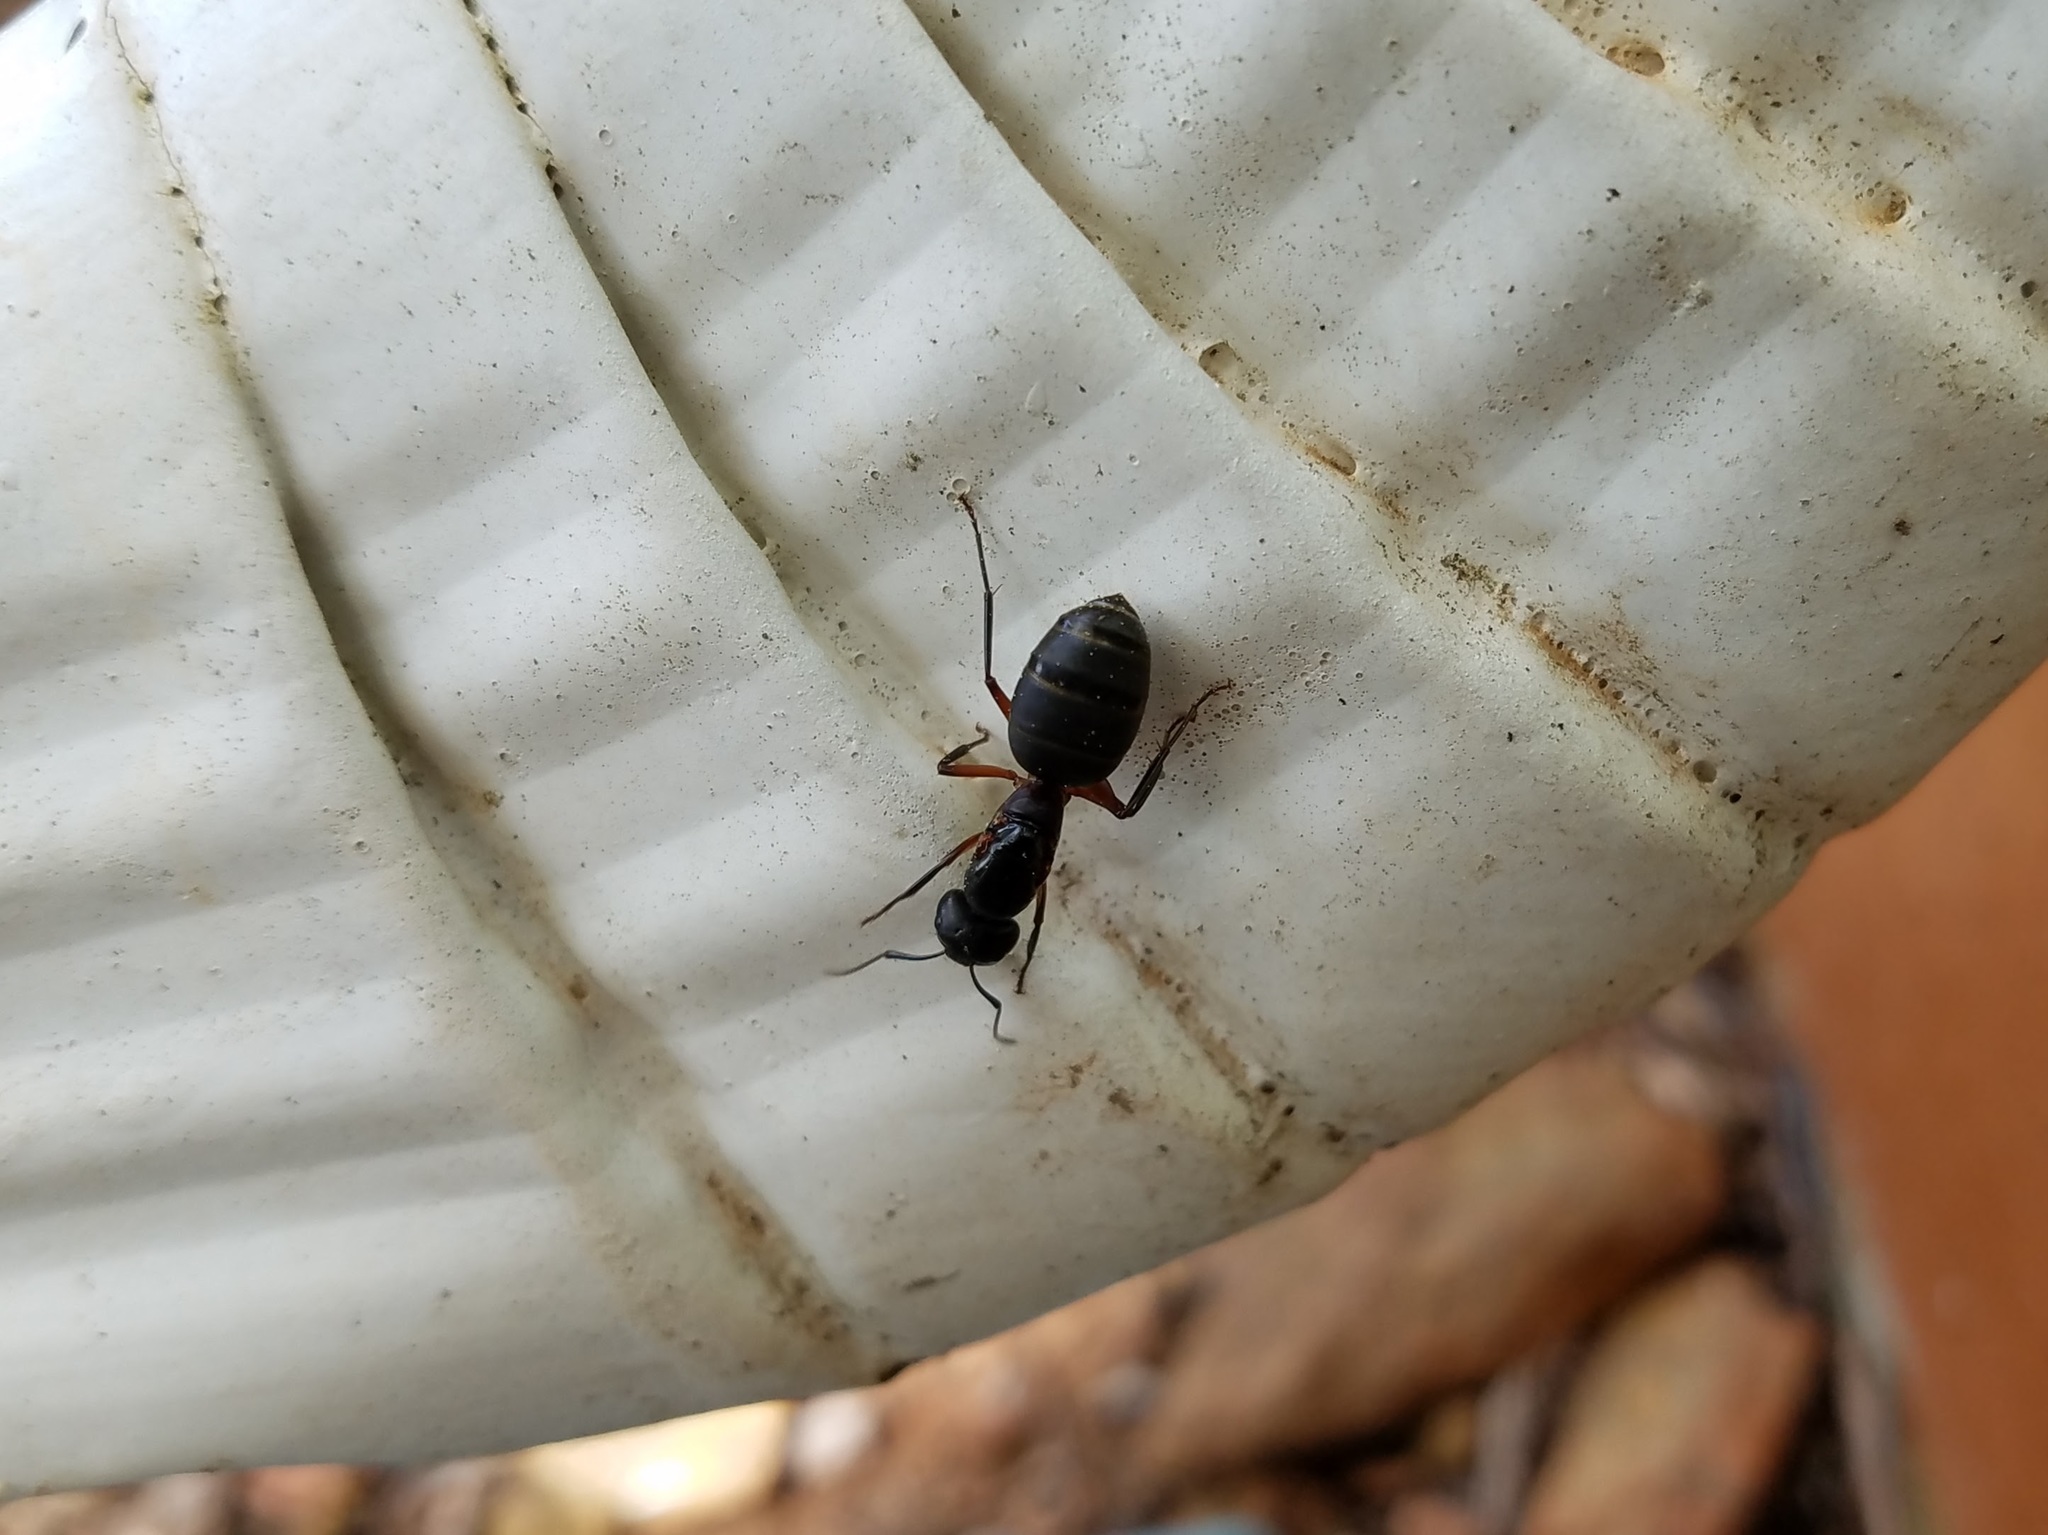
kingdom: Animalia
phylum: Arthropoda
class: Insecta
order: Hymenoptera
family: Formicidae
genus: Camponotus
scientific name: Camponotus chromaiodes
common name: Red carpenter ant
